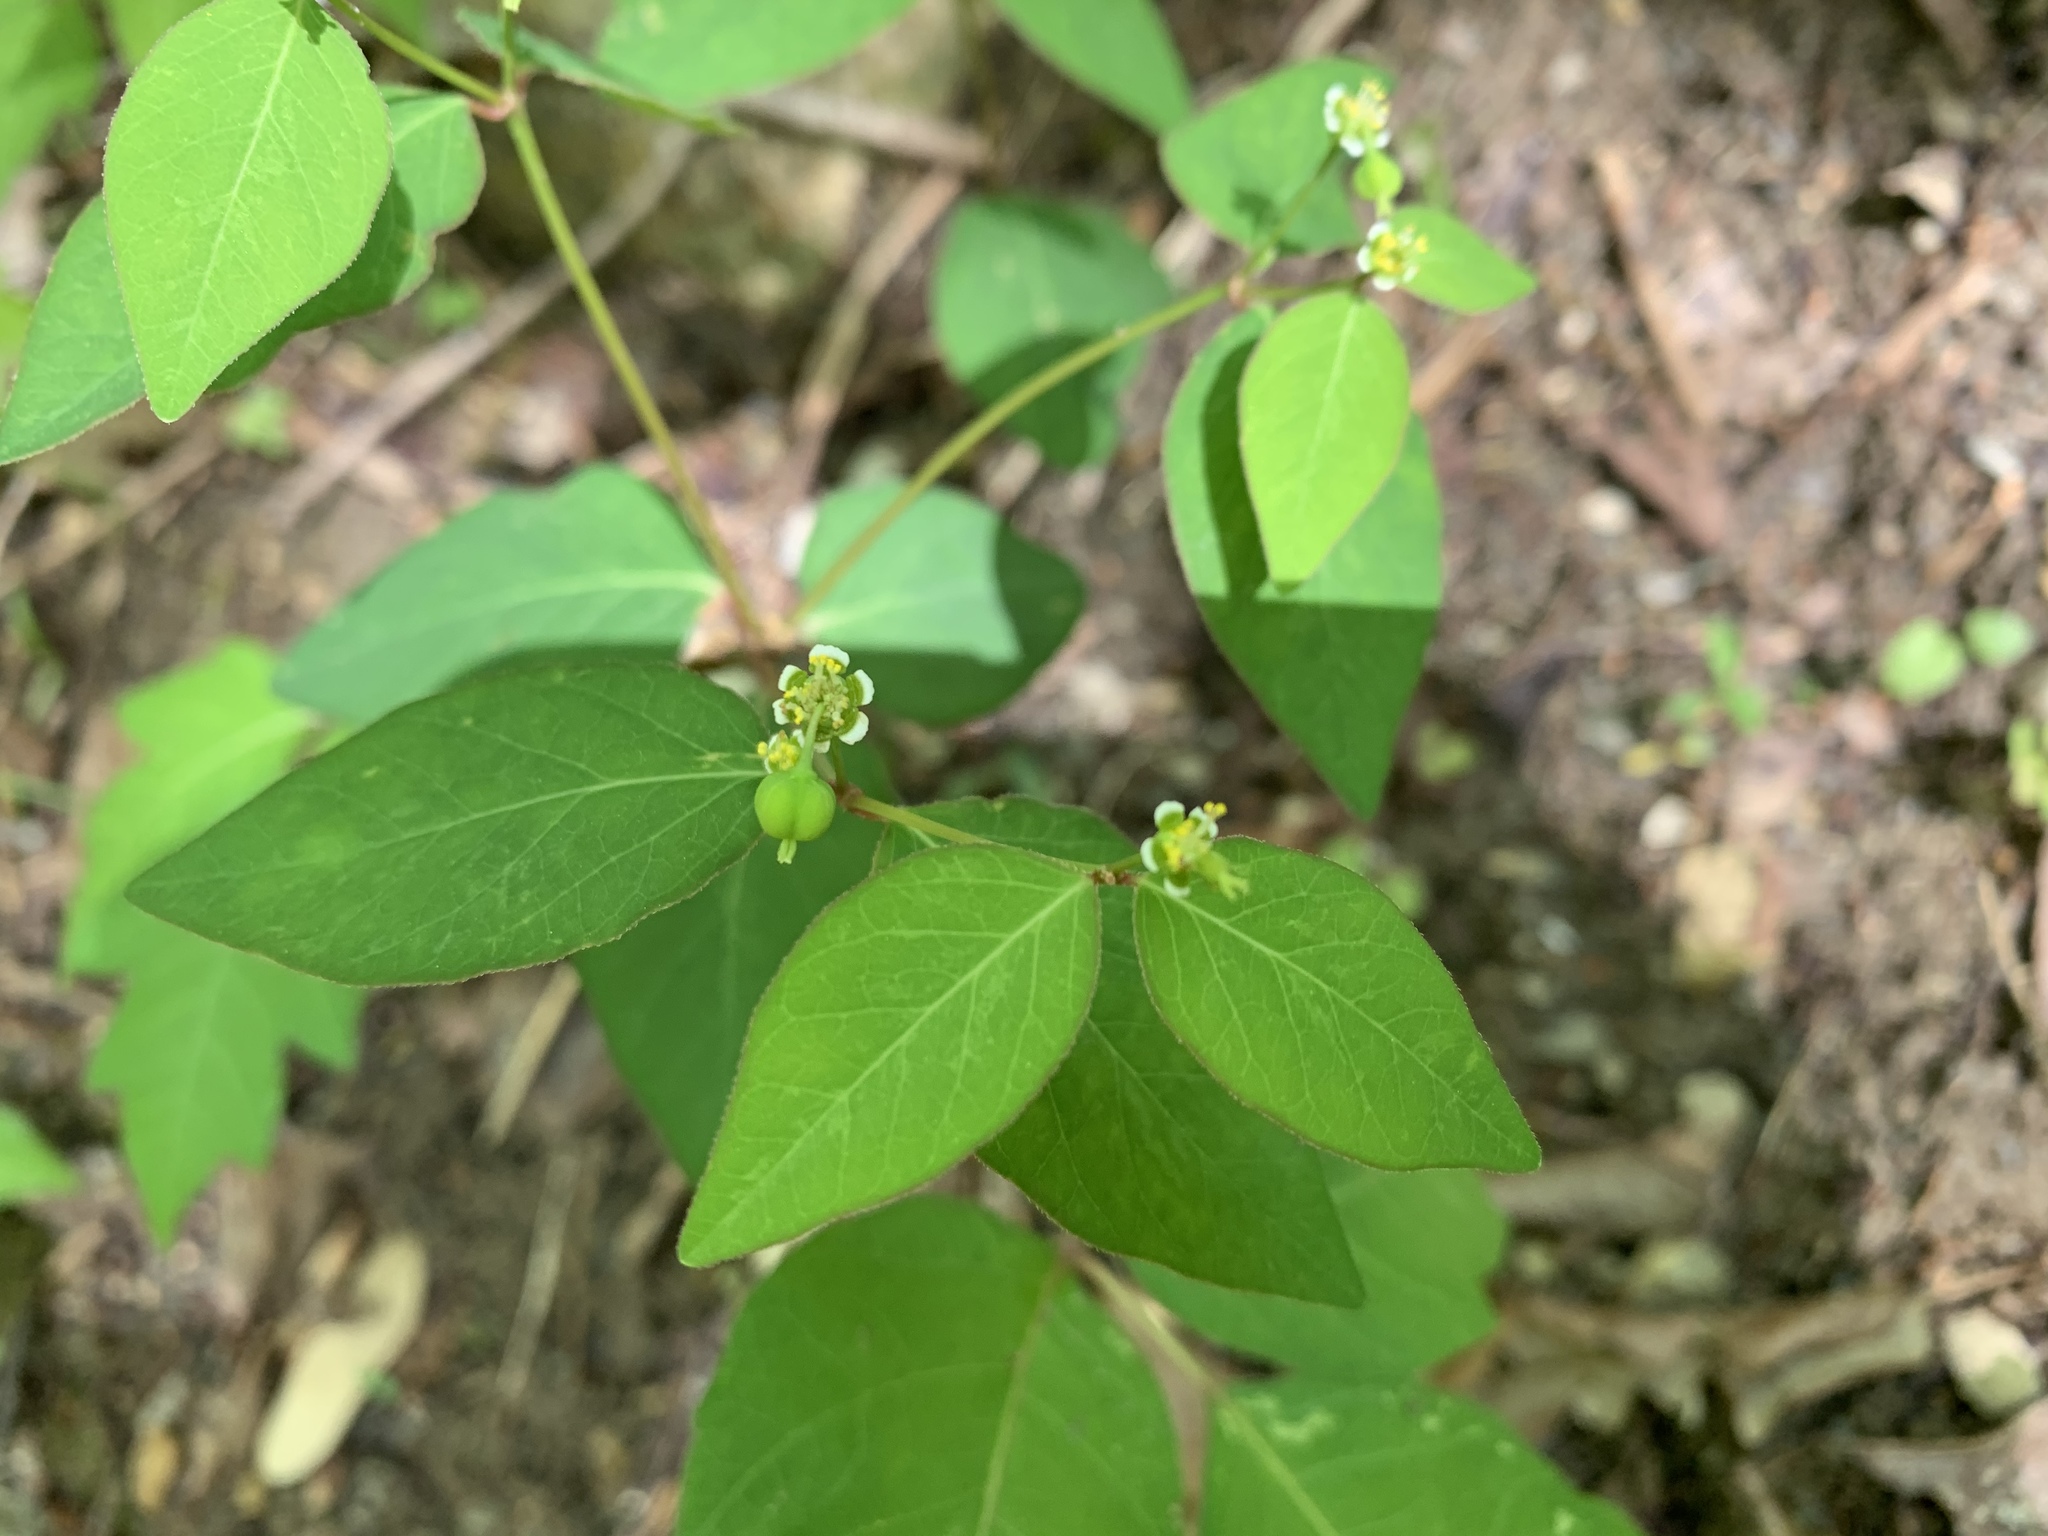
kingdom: Plantae
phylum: Tracheophyta
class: Magnoliopsida
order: Malpighiales
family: Euphorbiaceae
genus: Euphorbia
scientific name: Euphorbia mercurialina
